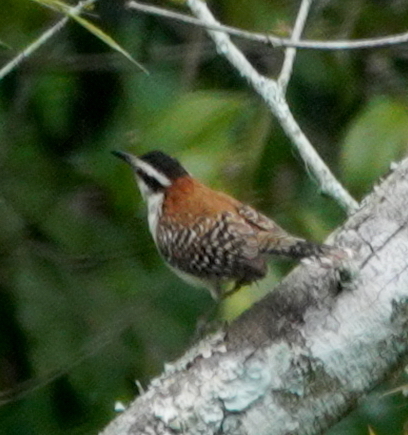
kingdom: Animalia
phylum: Chordata
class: Aves
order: Passeriformes
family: Troglodytidae
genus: Campylorhynchus
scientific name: Campylorhynchus rufinucha
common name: Rufous-naped wren
